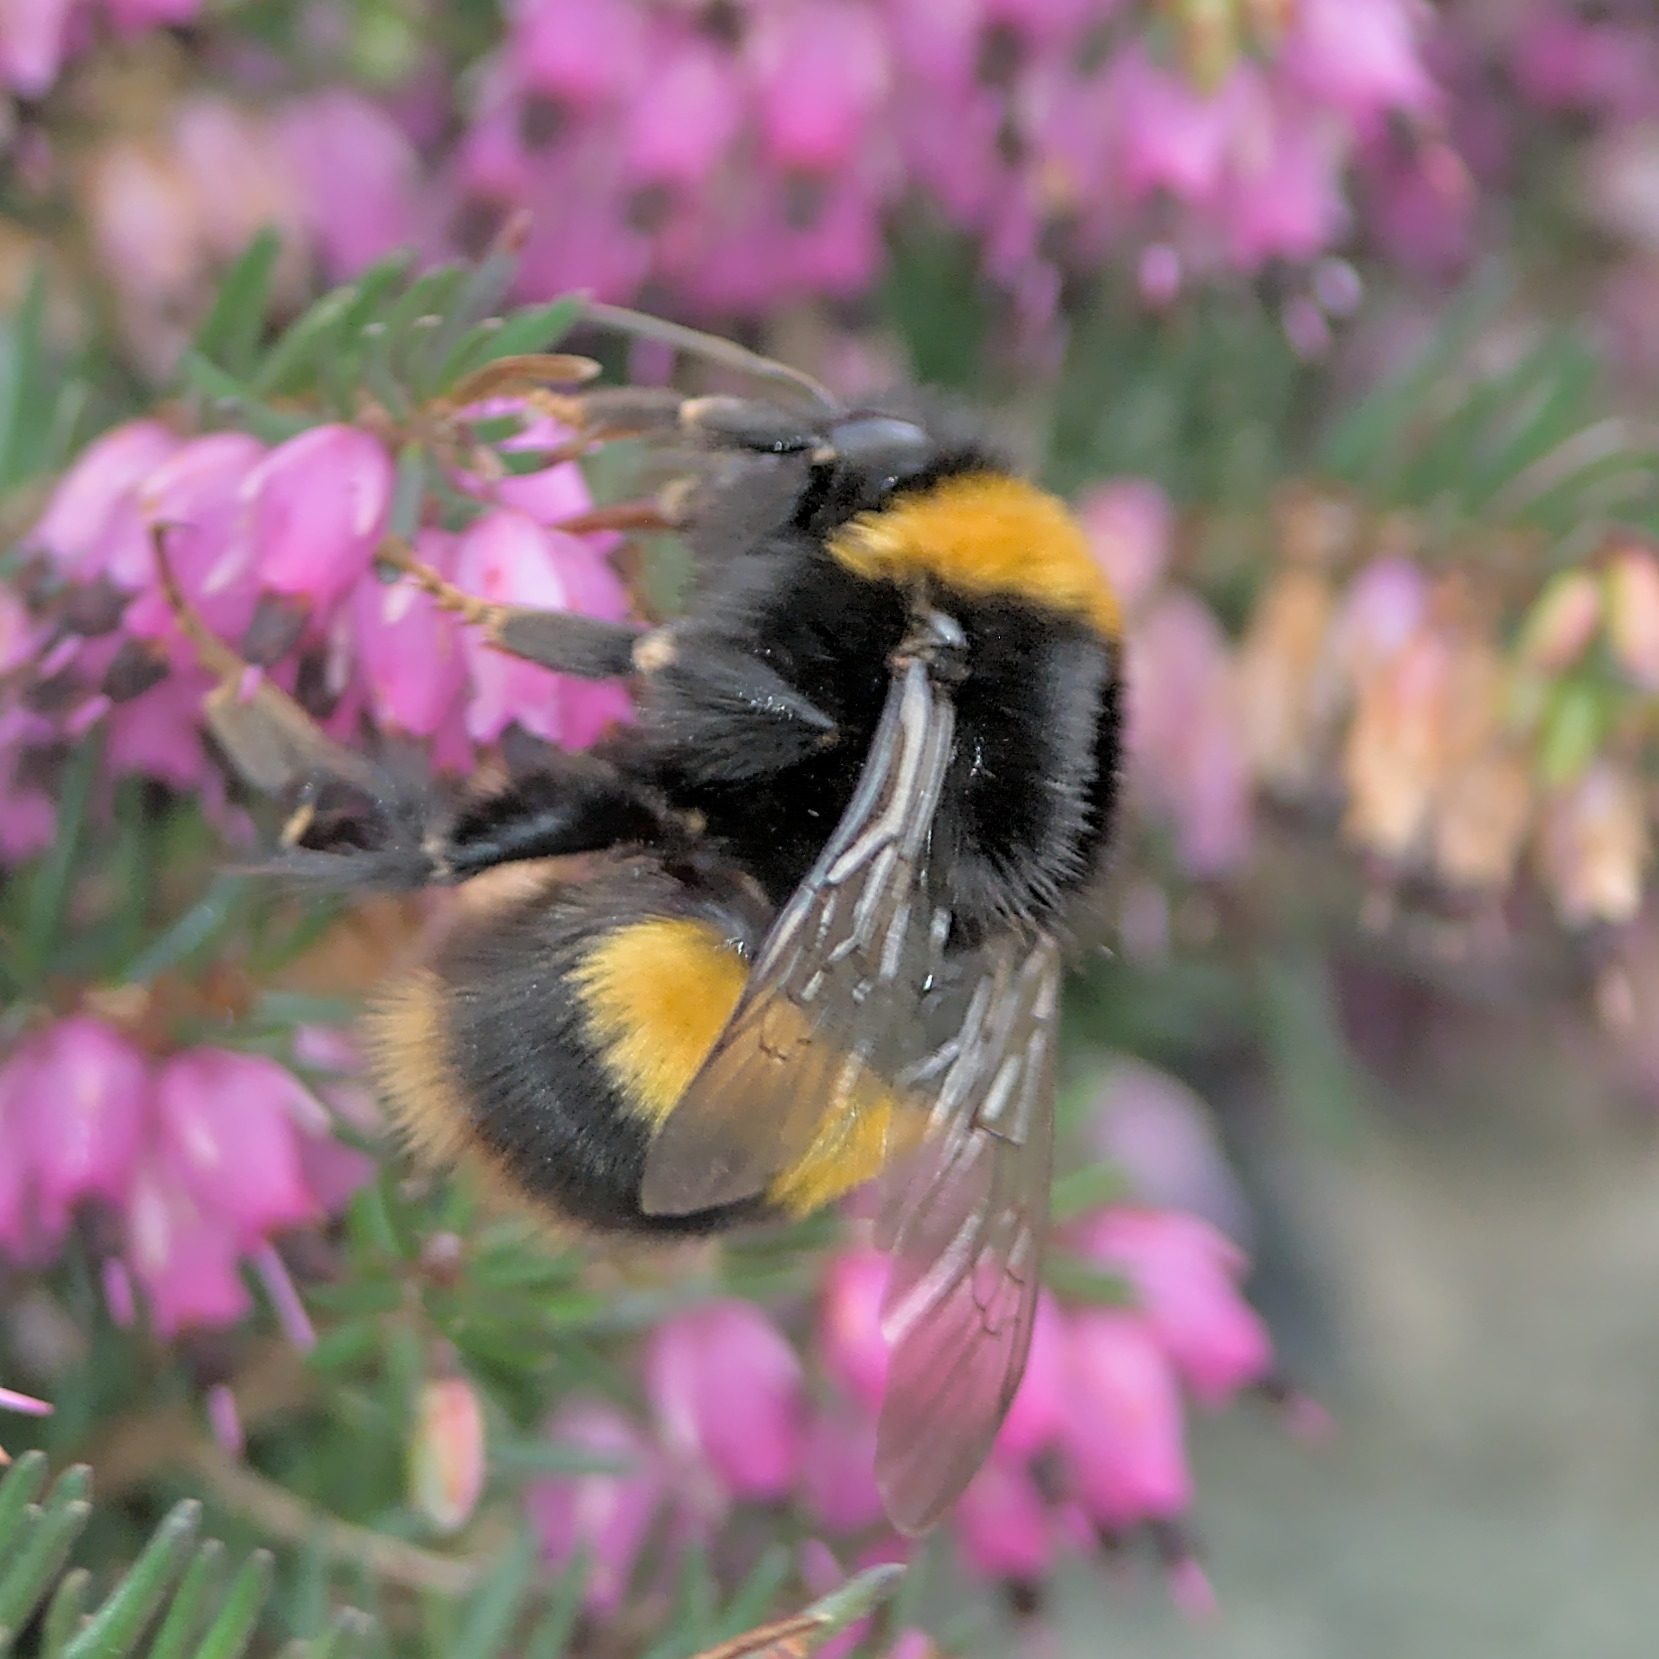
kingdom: Animalia
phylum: Arthropoda
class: Insecta
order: Hymenoptera
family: Apidae
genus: Bombus
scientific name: Bombus terrestris
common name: Buff-tailed bumblebee
